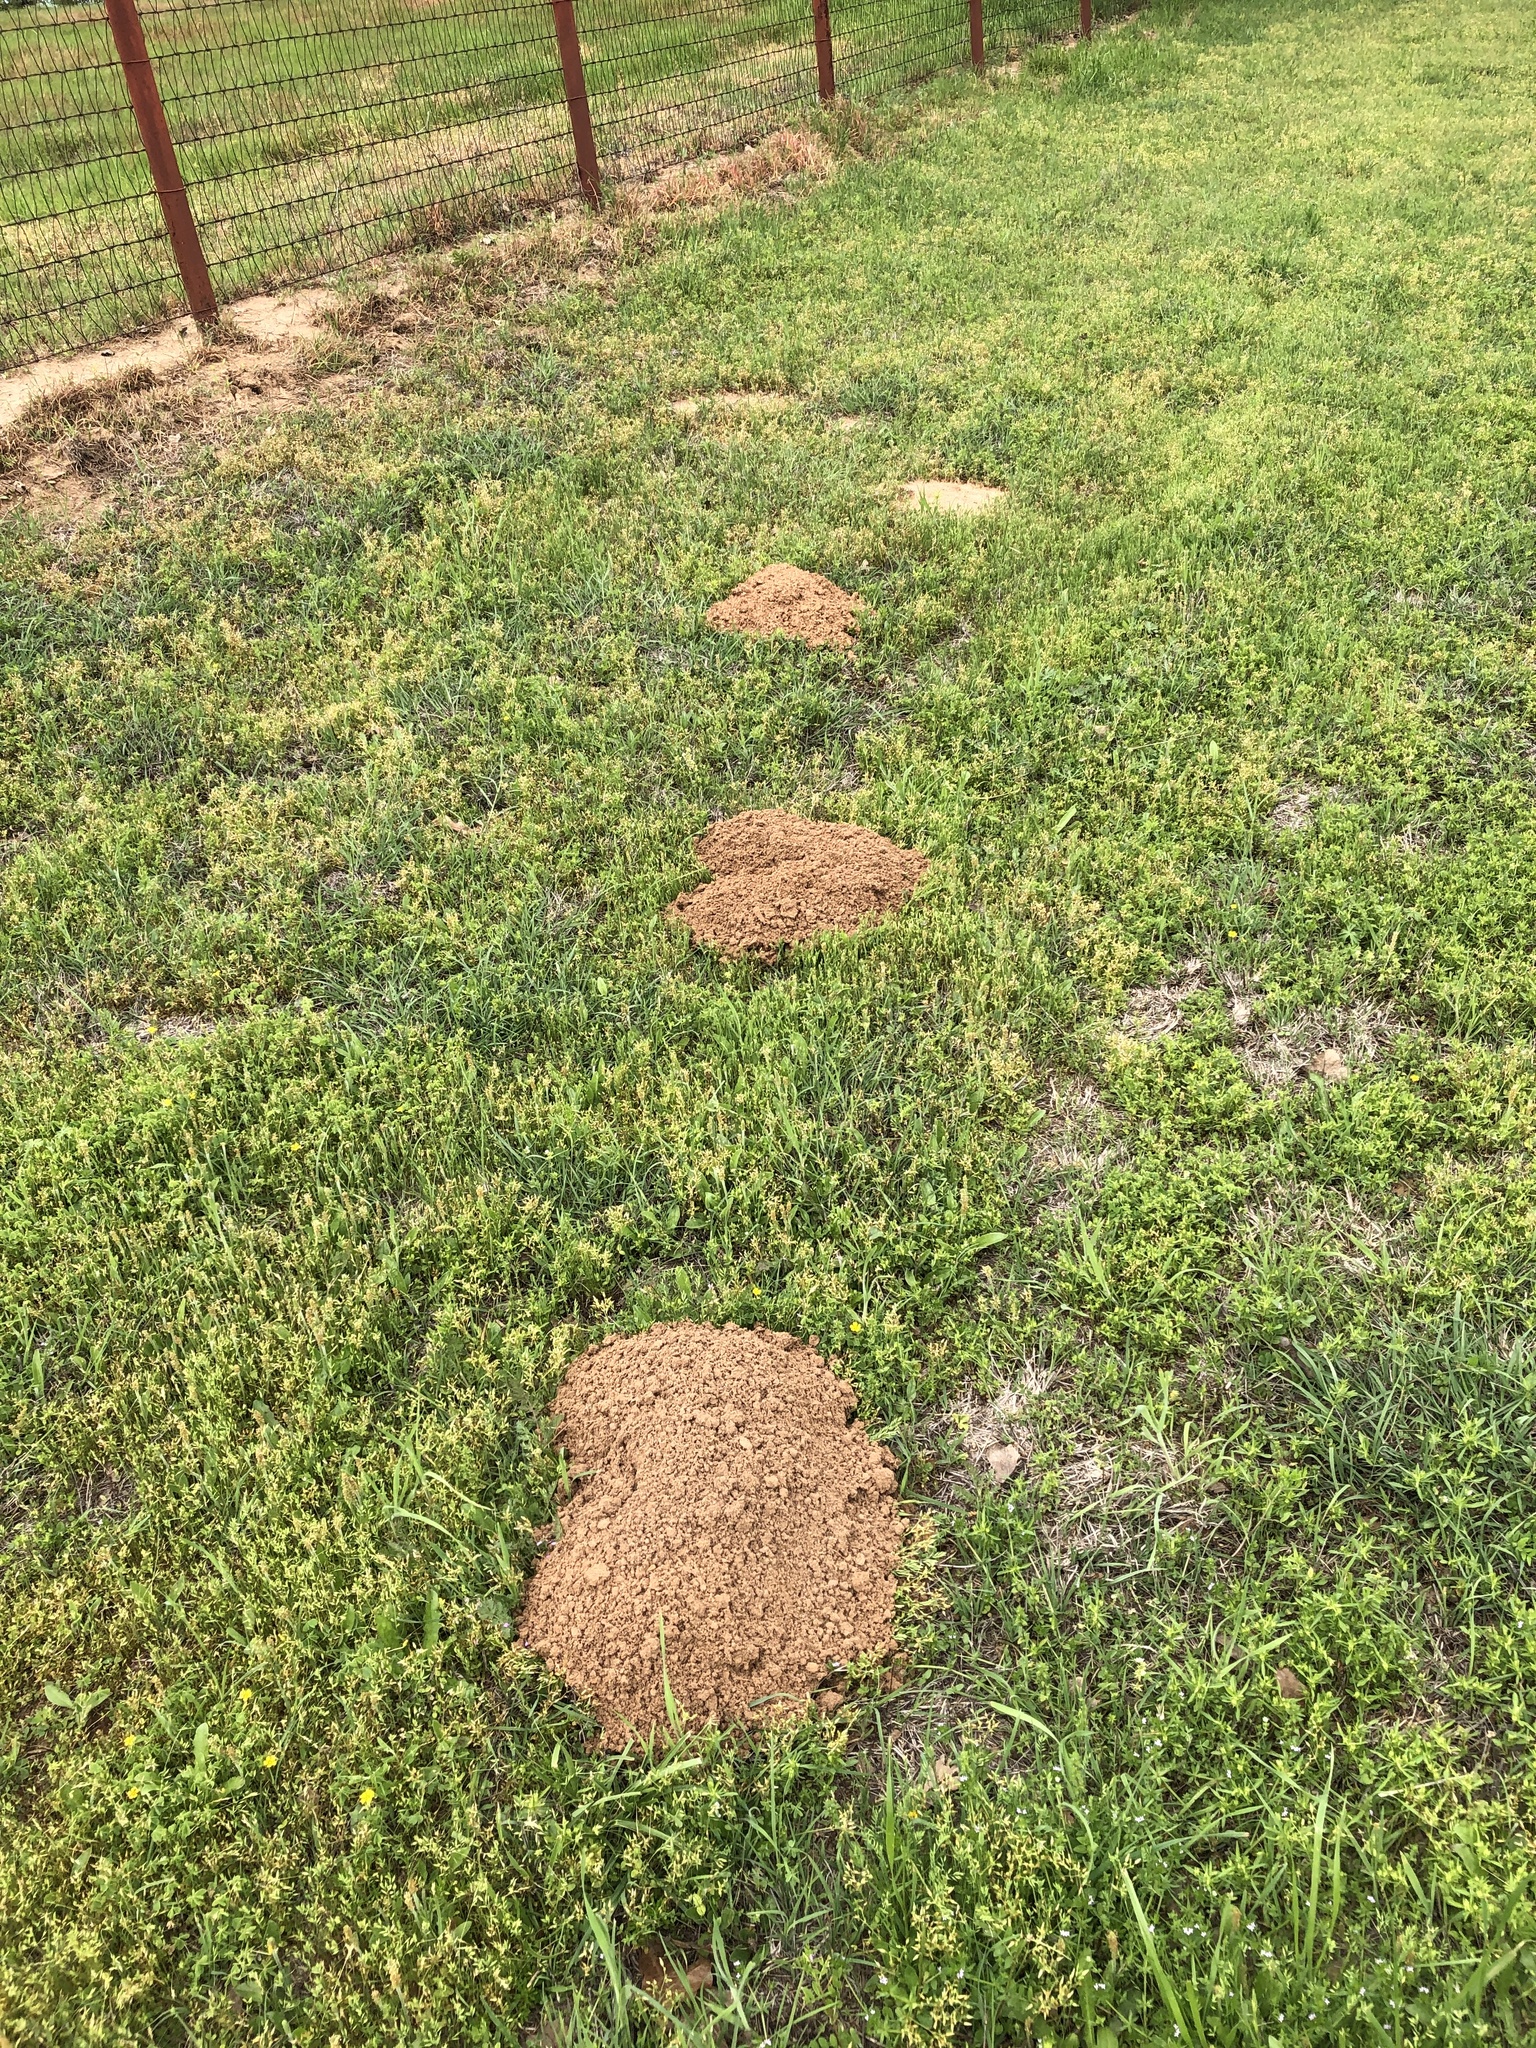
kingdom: Animalia
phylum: Chordata
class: Mammalia
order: Rodentia
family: Geomyidae
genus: Geomys
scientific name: Geomys bursarius
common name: Plains pocket gopher
